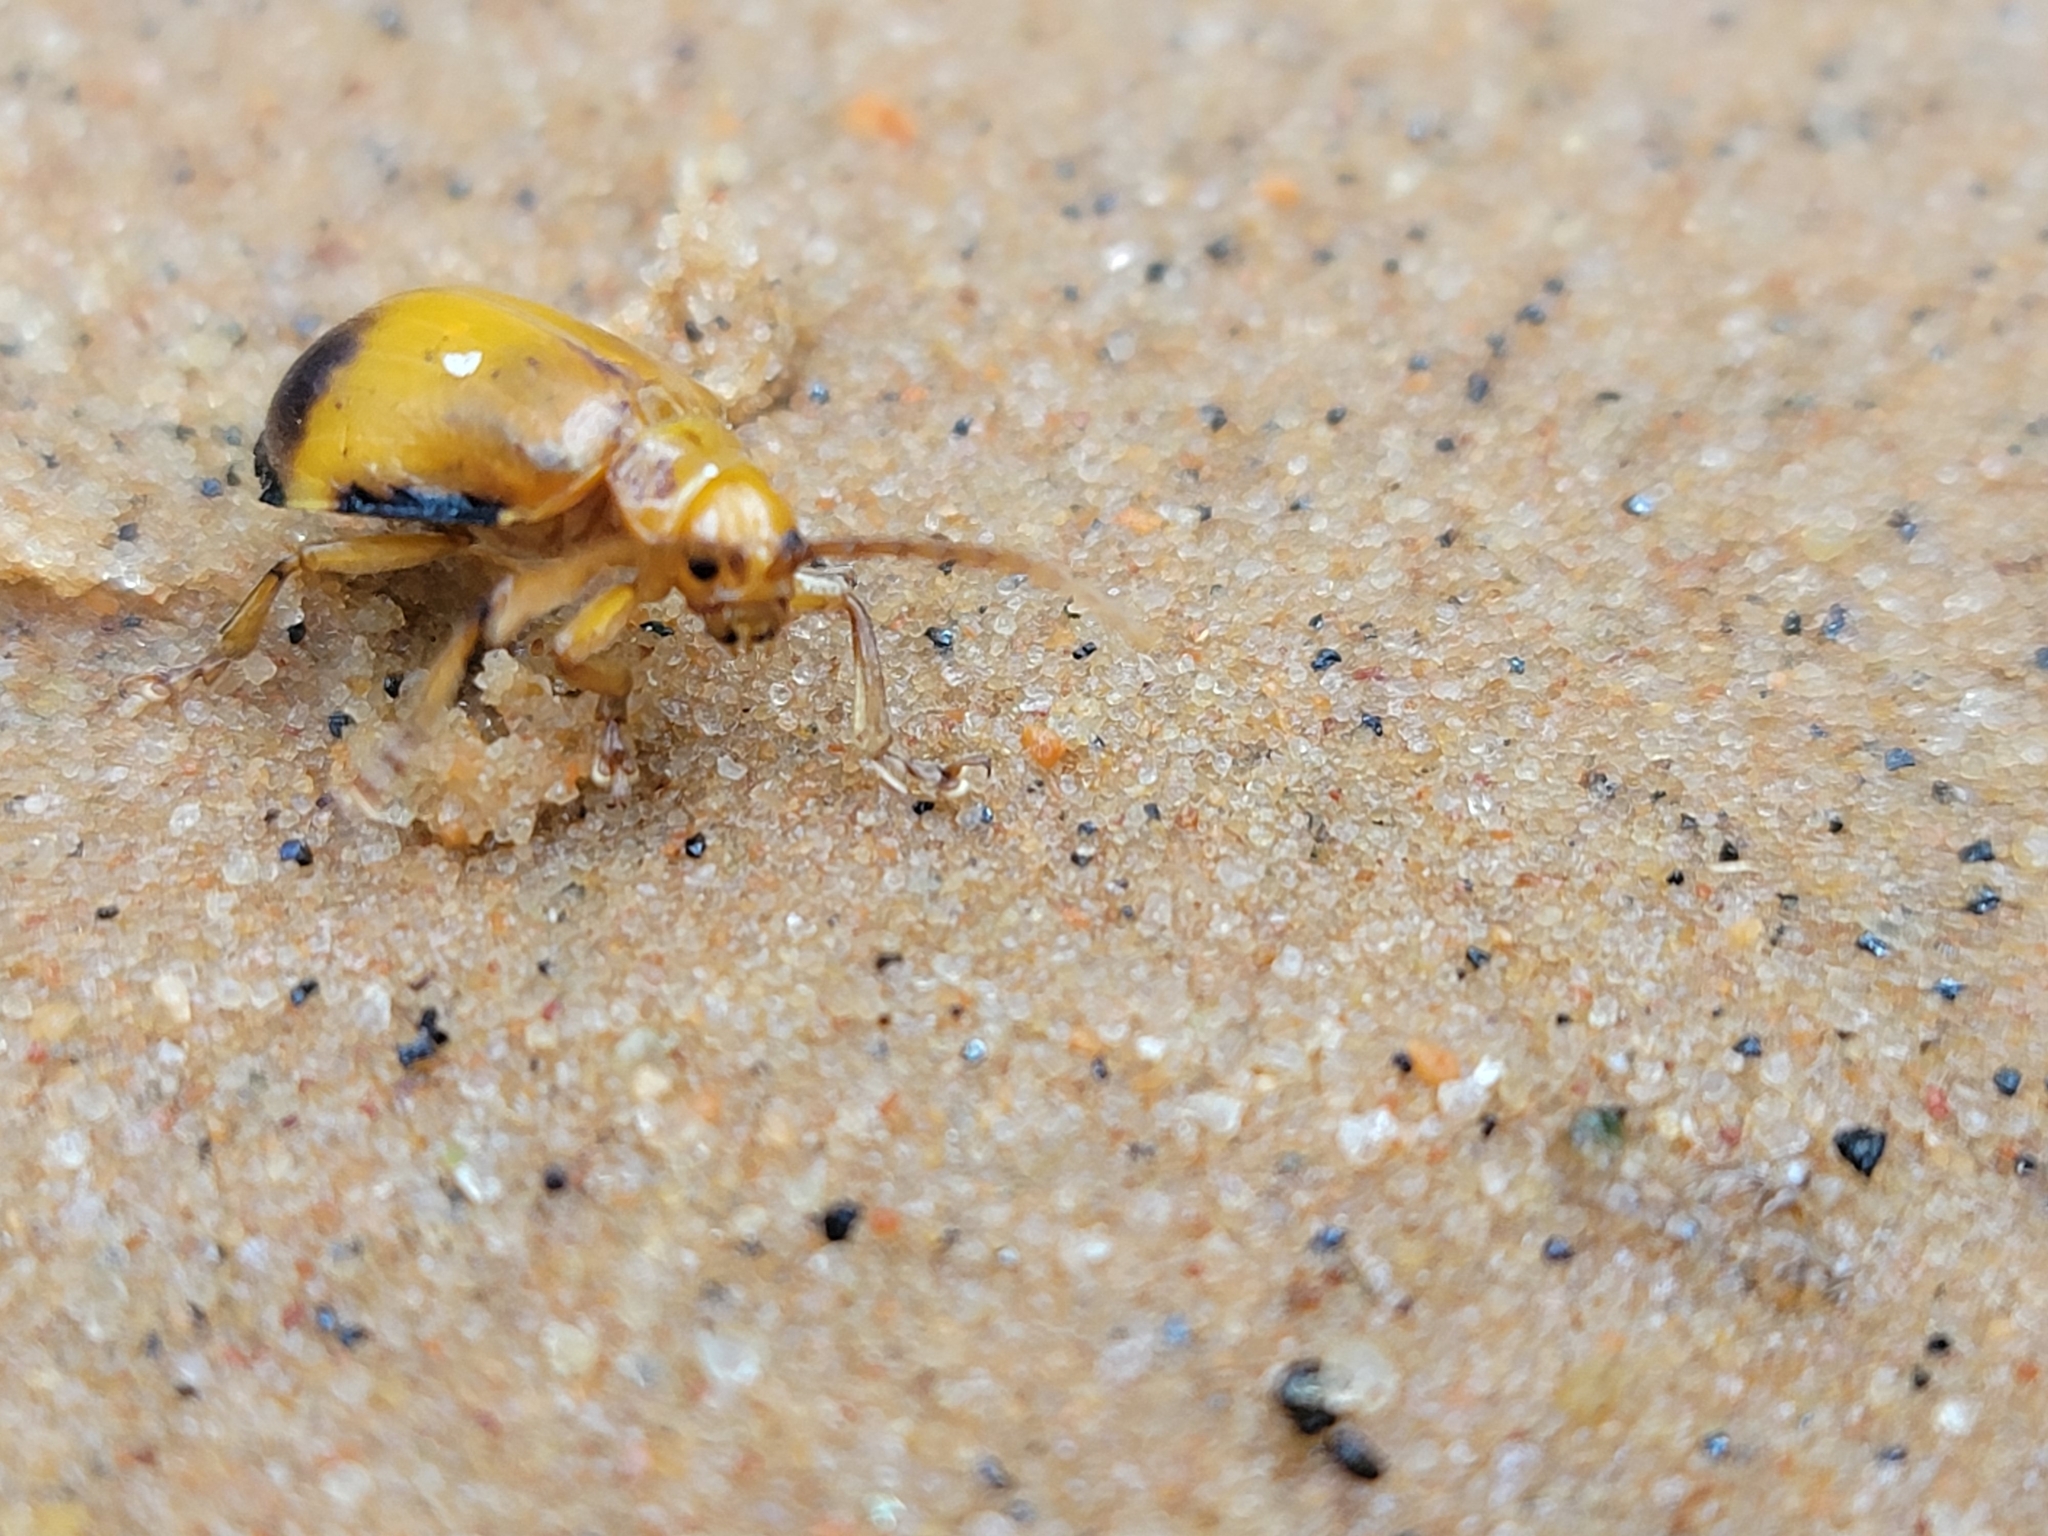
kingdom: Animalia
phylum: Arthropoda
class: Insecta
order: Coleoptera
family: Chrysomelidae
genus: Monocesta
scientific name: Monocesta coryli
